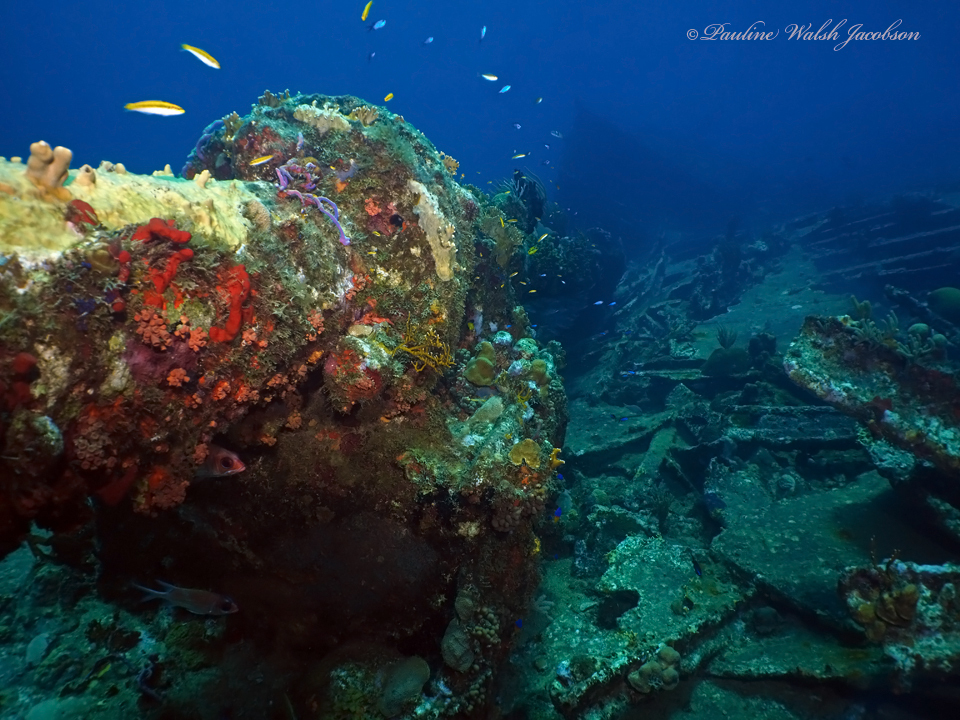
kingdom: Animalia
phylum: Chordata
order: Perciformes
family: Labridae
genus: Thalassoma
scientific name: Thalassoma bifasciatum
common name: Bluehead wrasse
